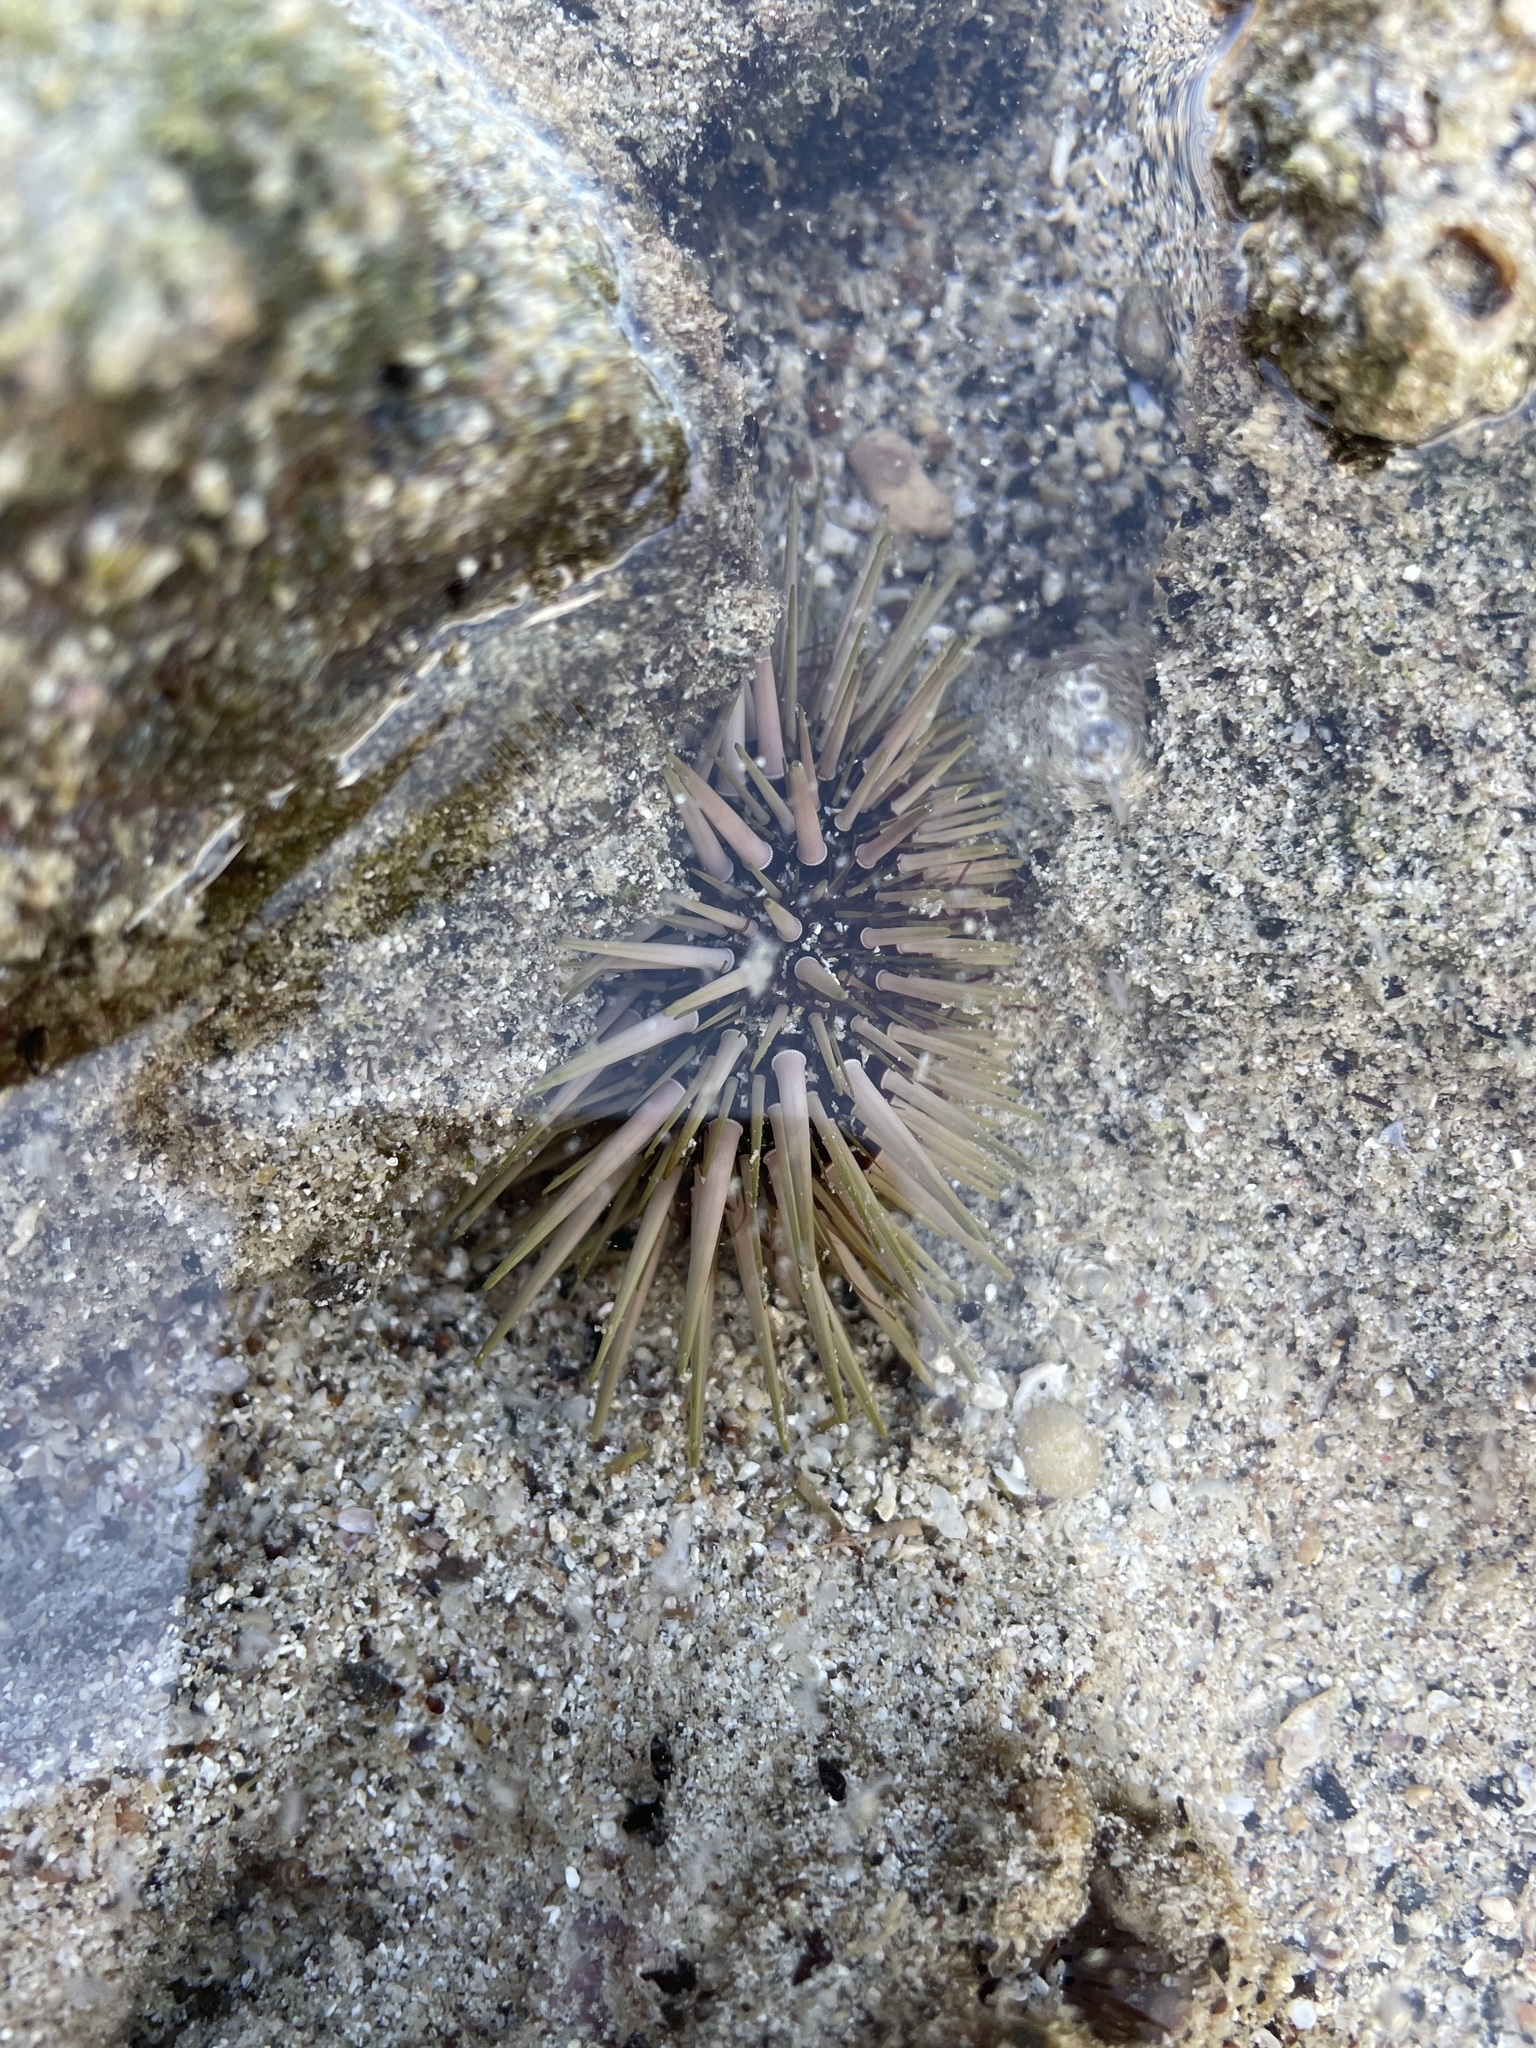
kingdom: Animalia
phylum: Echinodermata
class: Echinoidea
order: Camarodonta
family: Echinometridae
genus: Echinometra
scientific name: Echinometra mathaei
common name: Rock-boring urchin
